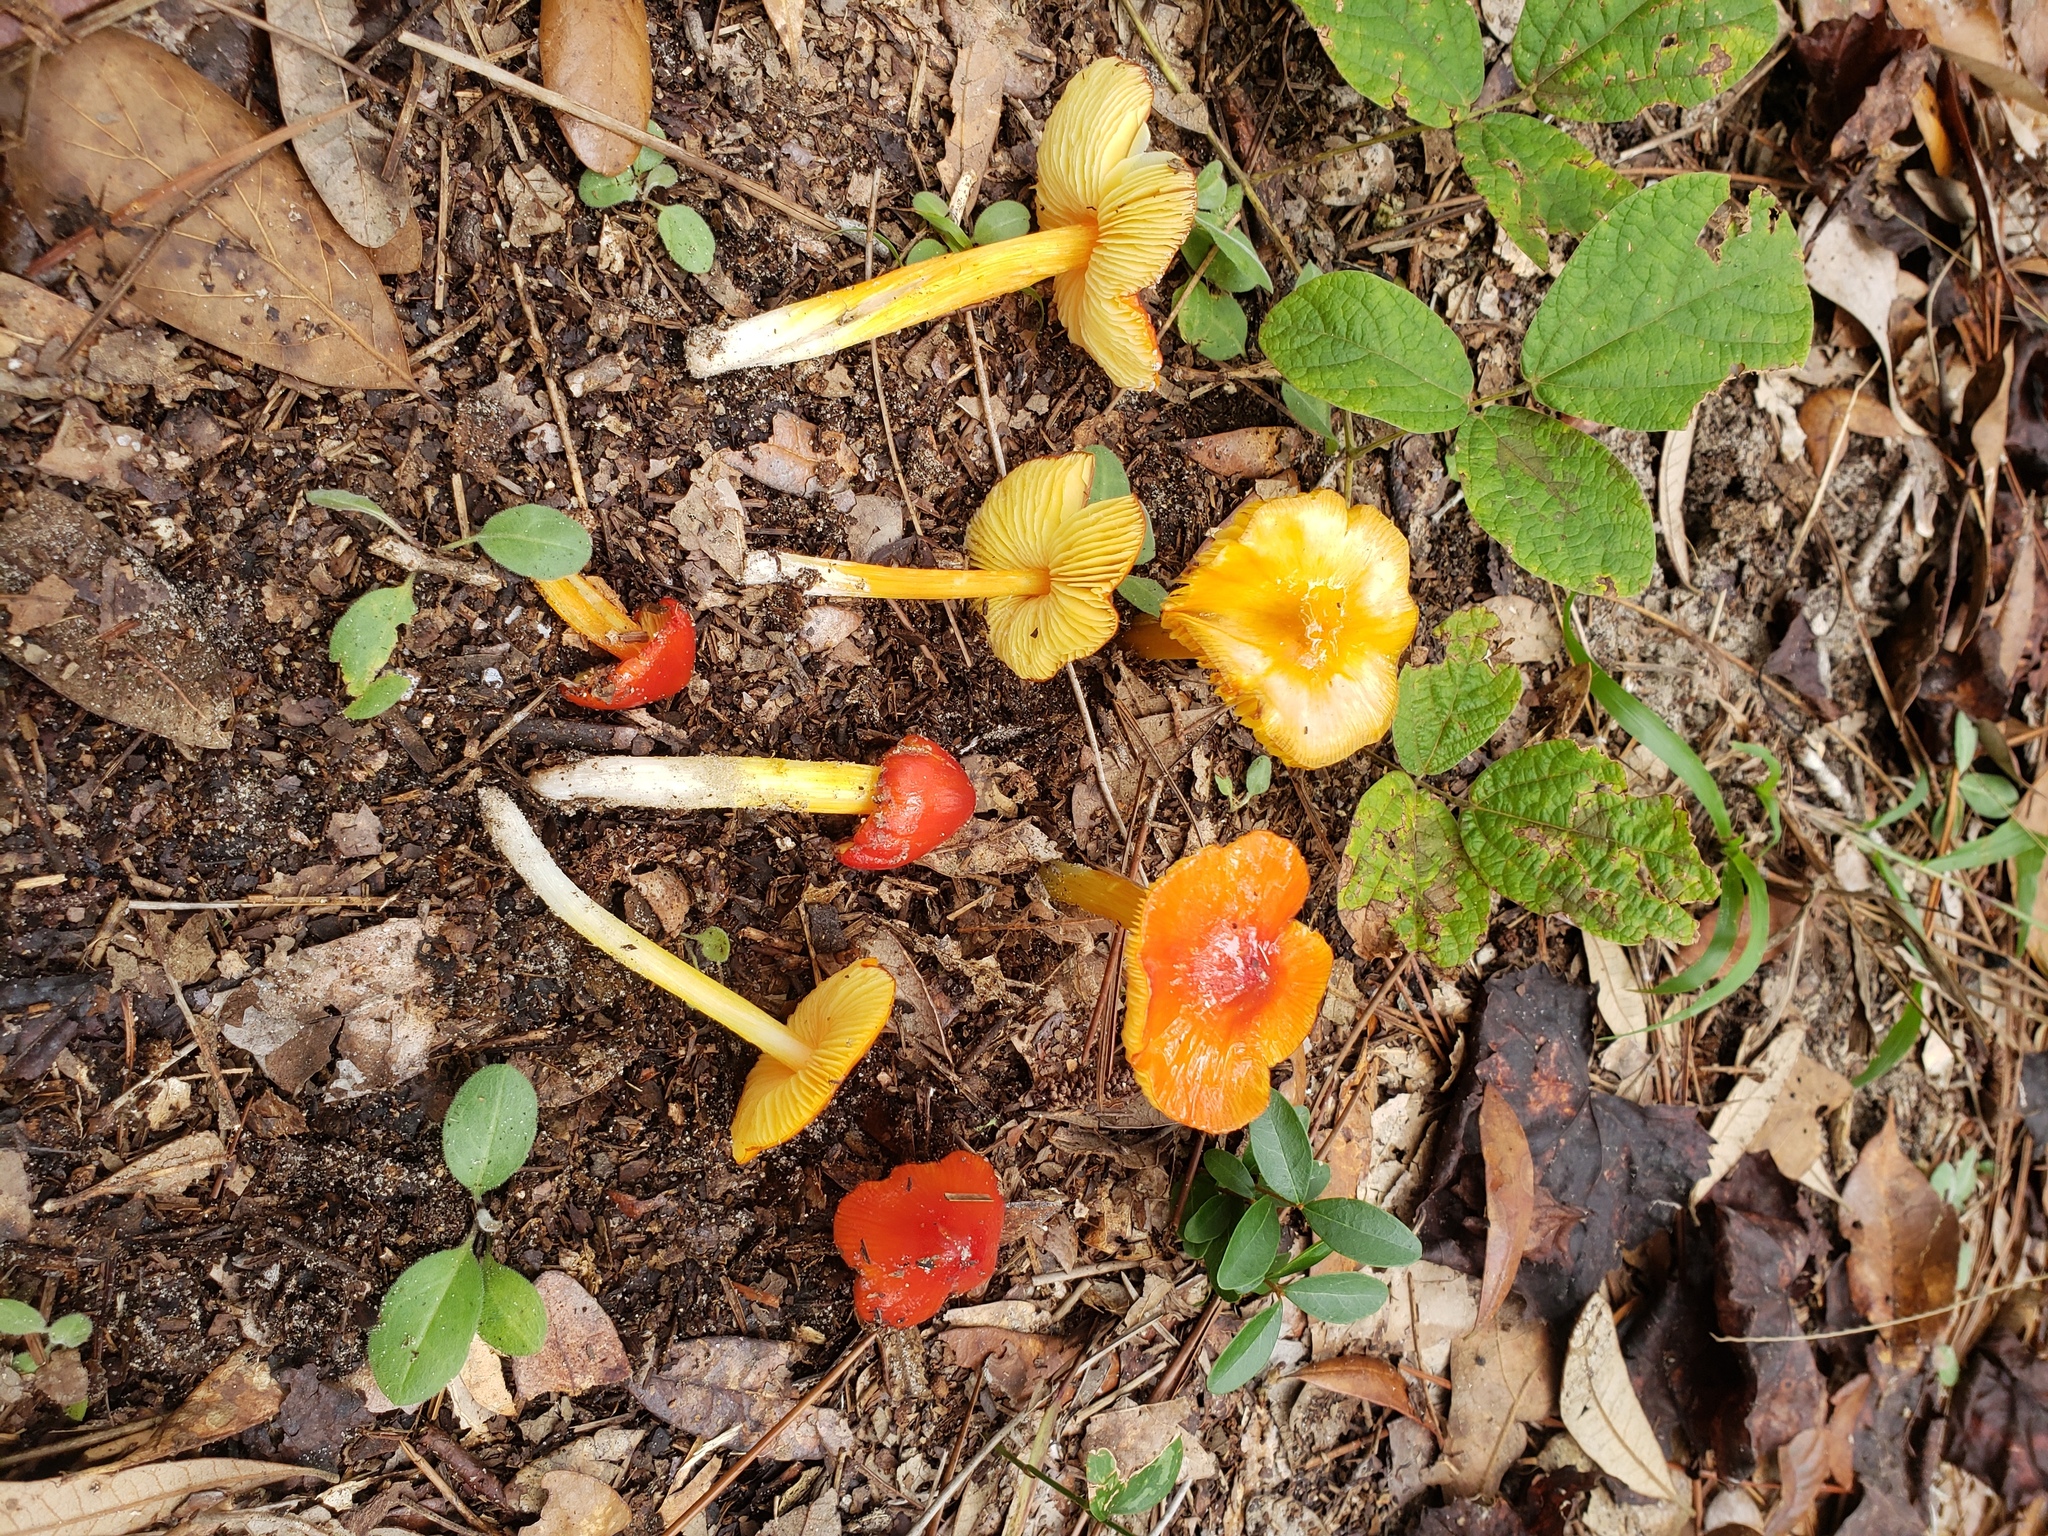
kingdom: Fungi
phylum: Basidiomycota
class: Agaricomycetes
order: Agaricales
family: Hygrophoraceae
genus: Hygrocybe
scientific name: Hygrocybe acutoconica
